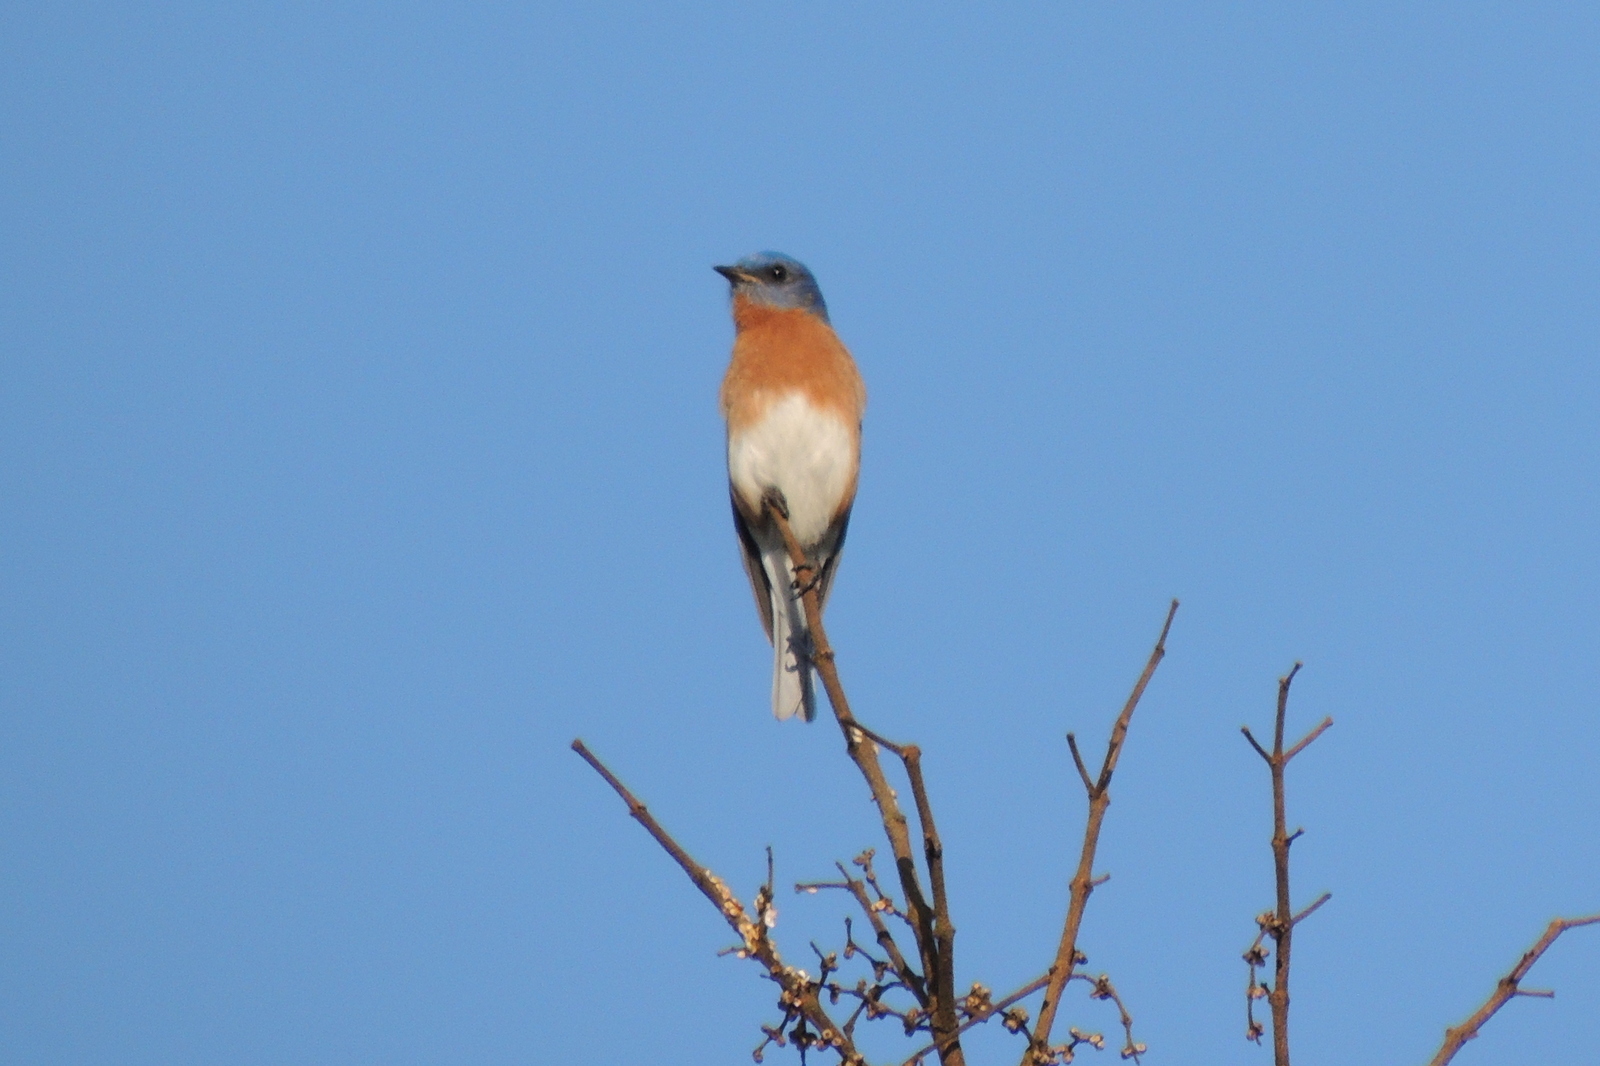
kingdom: Animalia
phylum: Chordata
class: Aves
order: Passeriformes
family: Turdidae
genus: Sialia
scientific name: Sialia sialis
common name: Eastern bluebird
